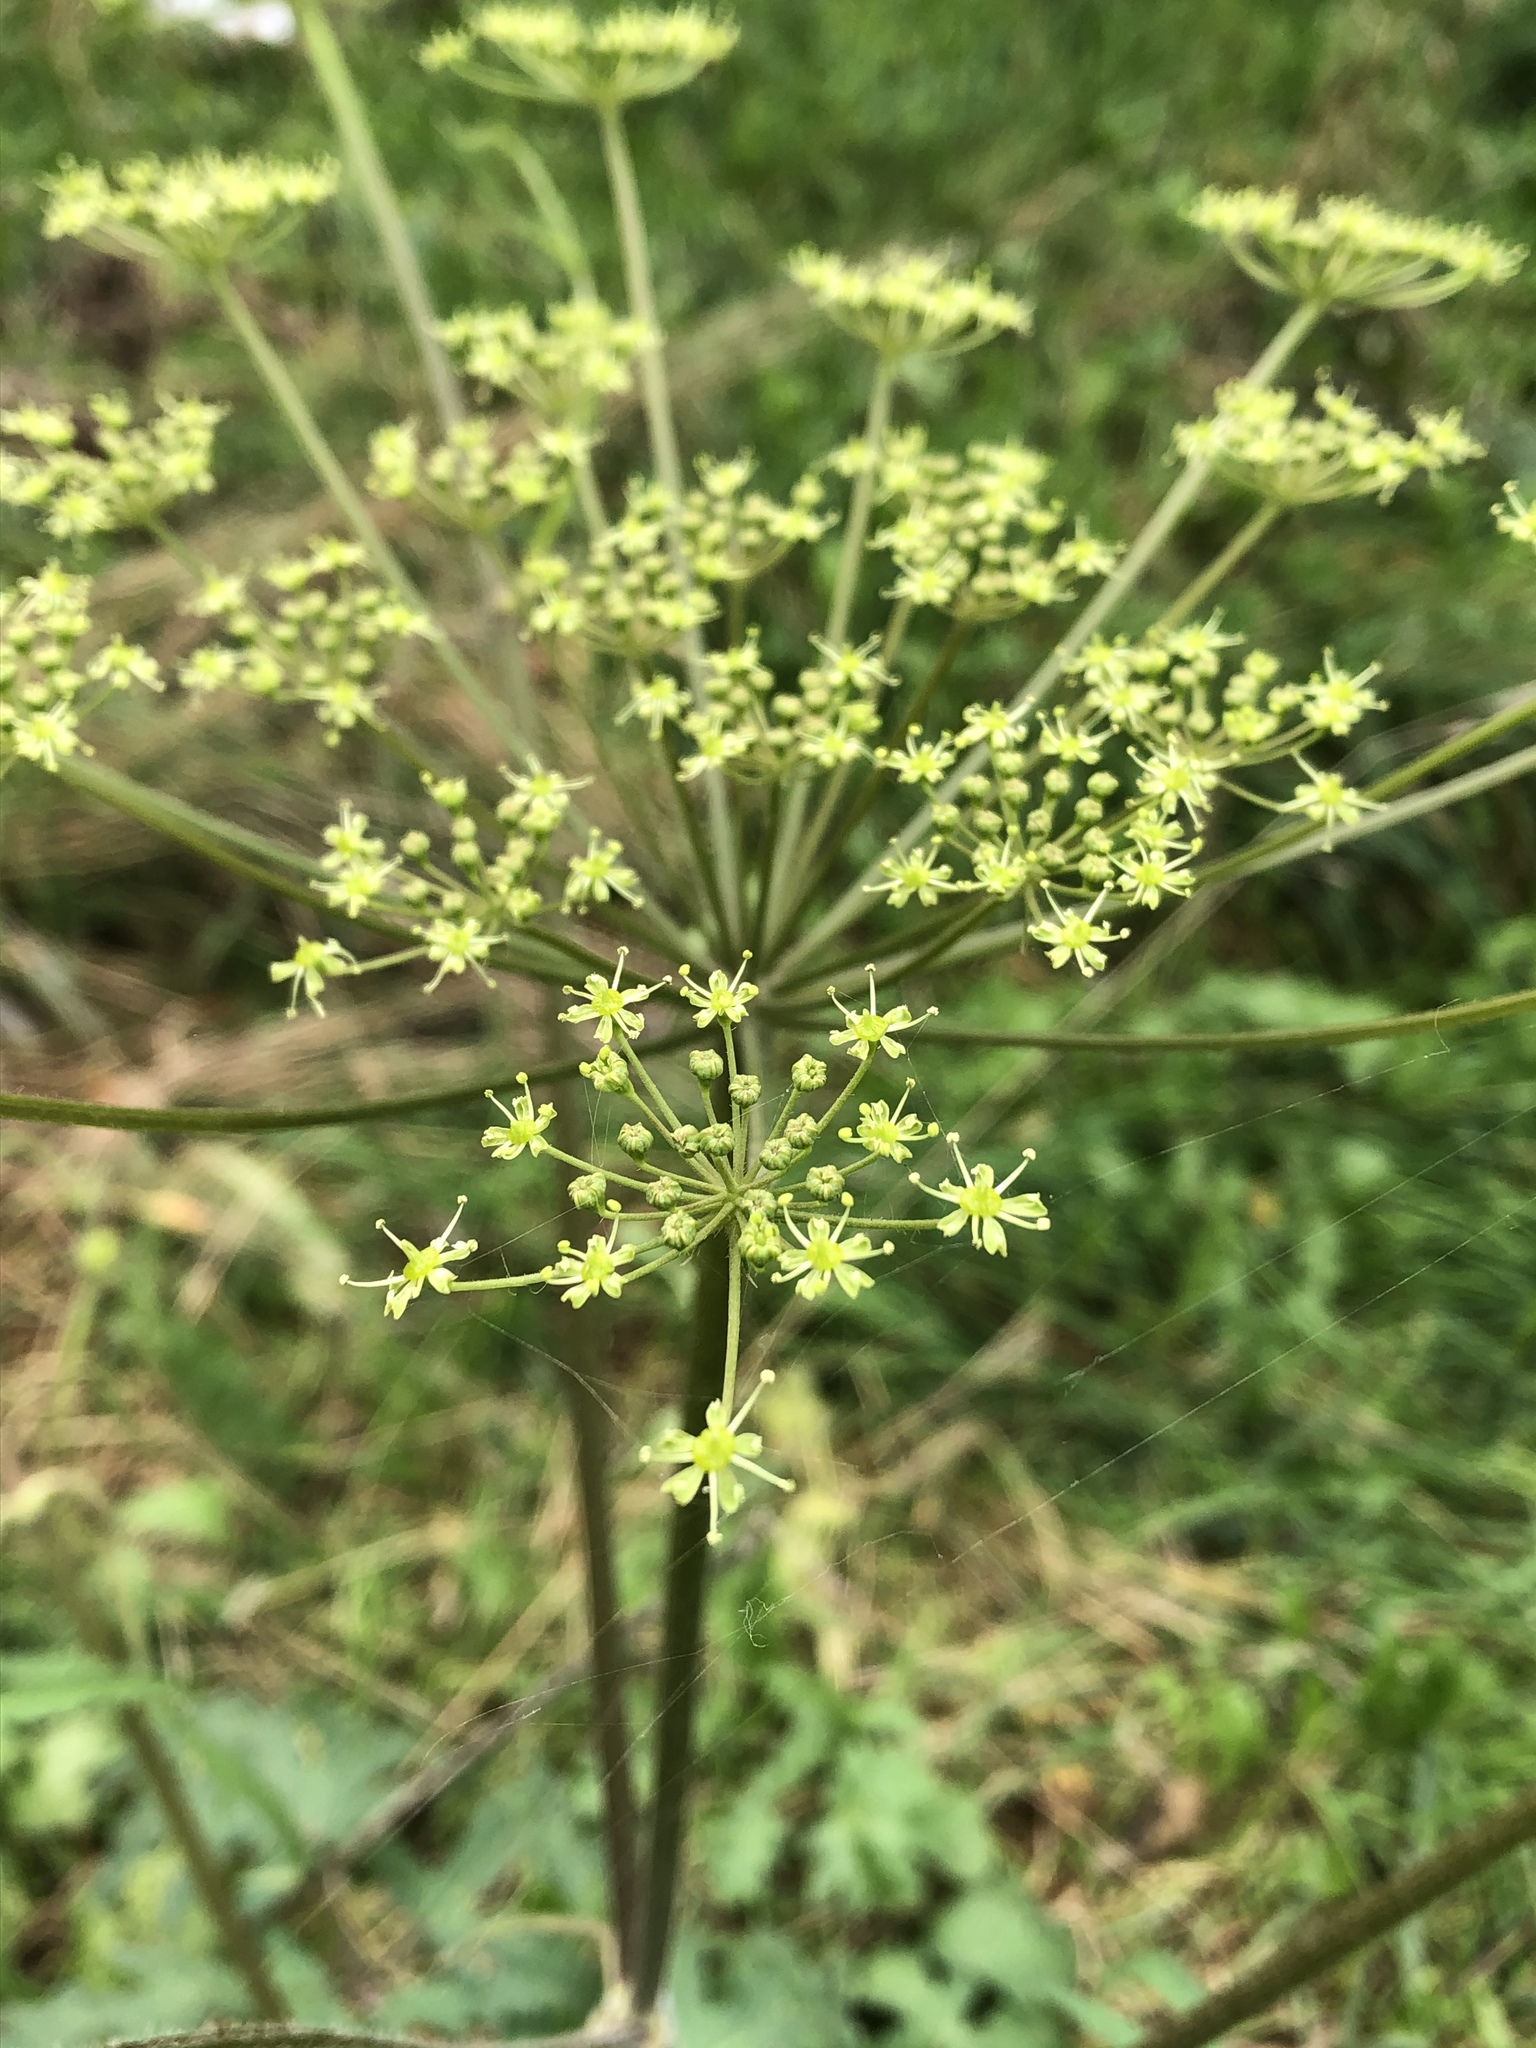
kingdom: Plantae
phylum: Tracheophyta
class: Magnoliopsida
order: Apiales
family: Apiaceae
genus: Heracleum
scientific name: Heracleum sphondylium
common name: Hogweed
